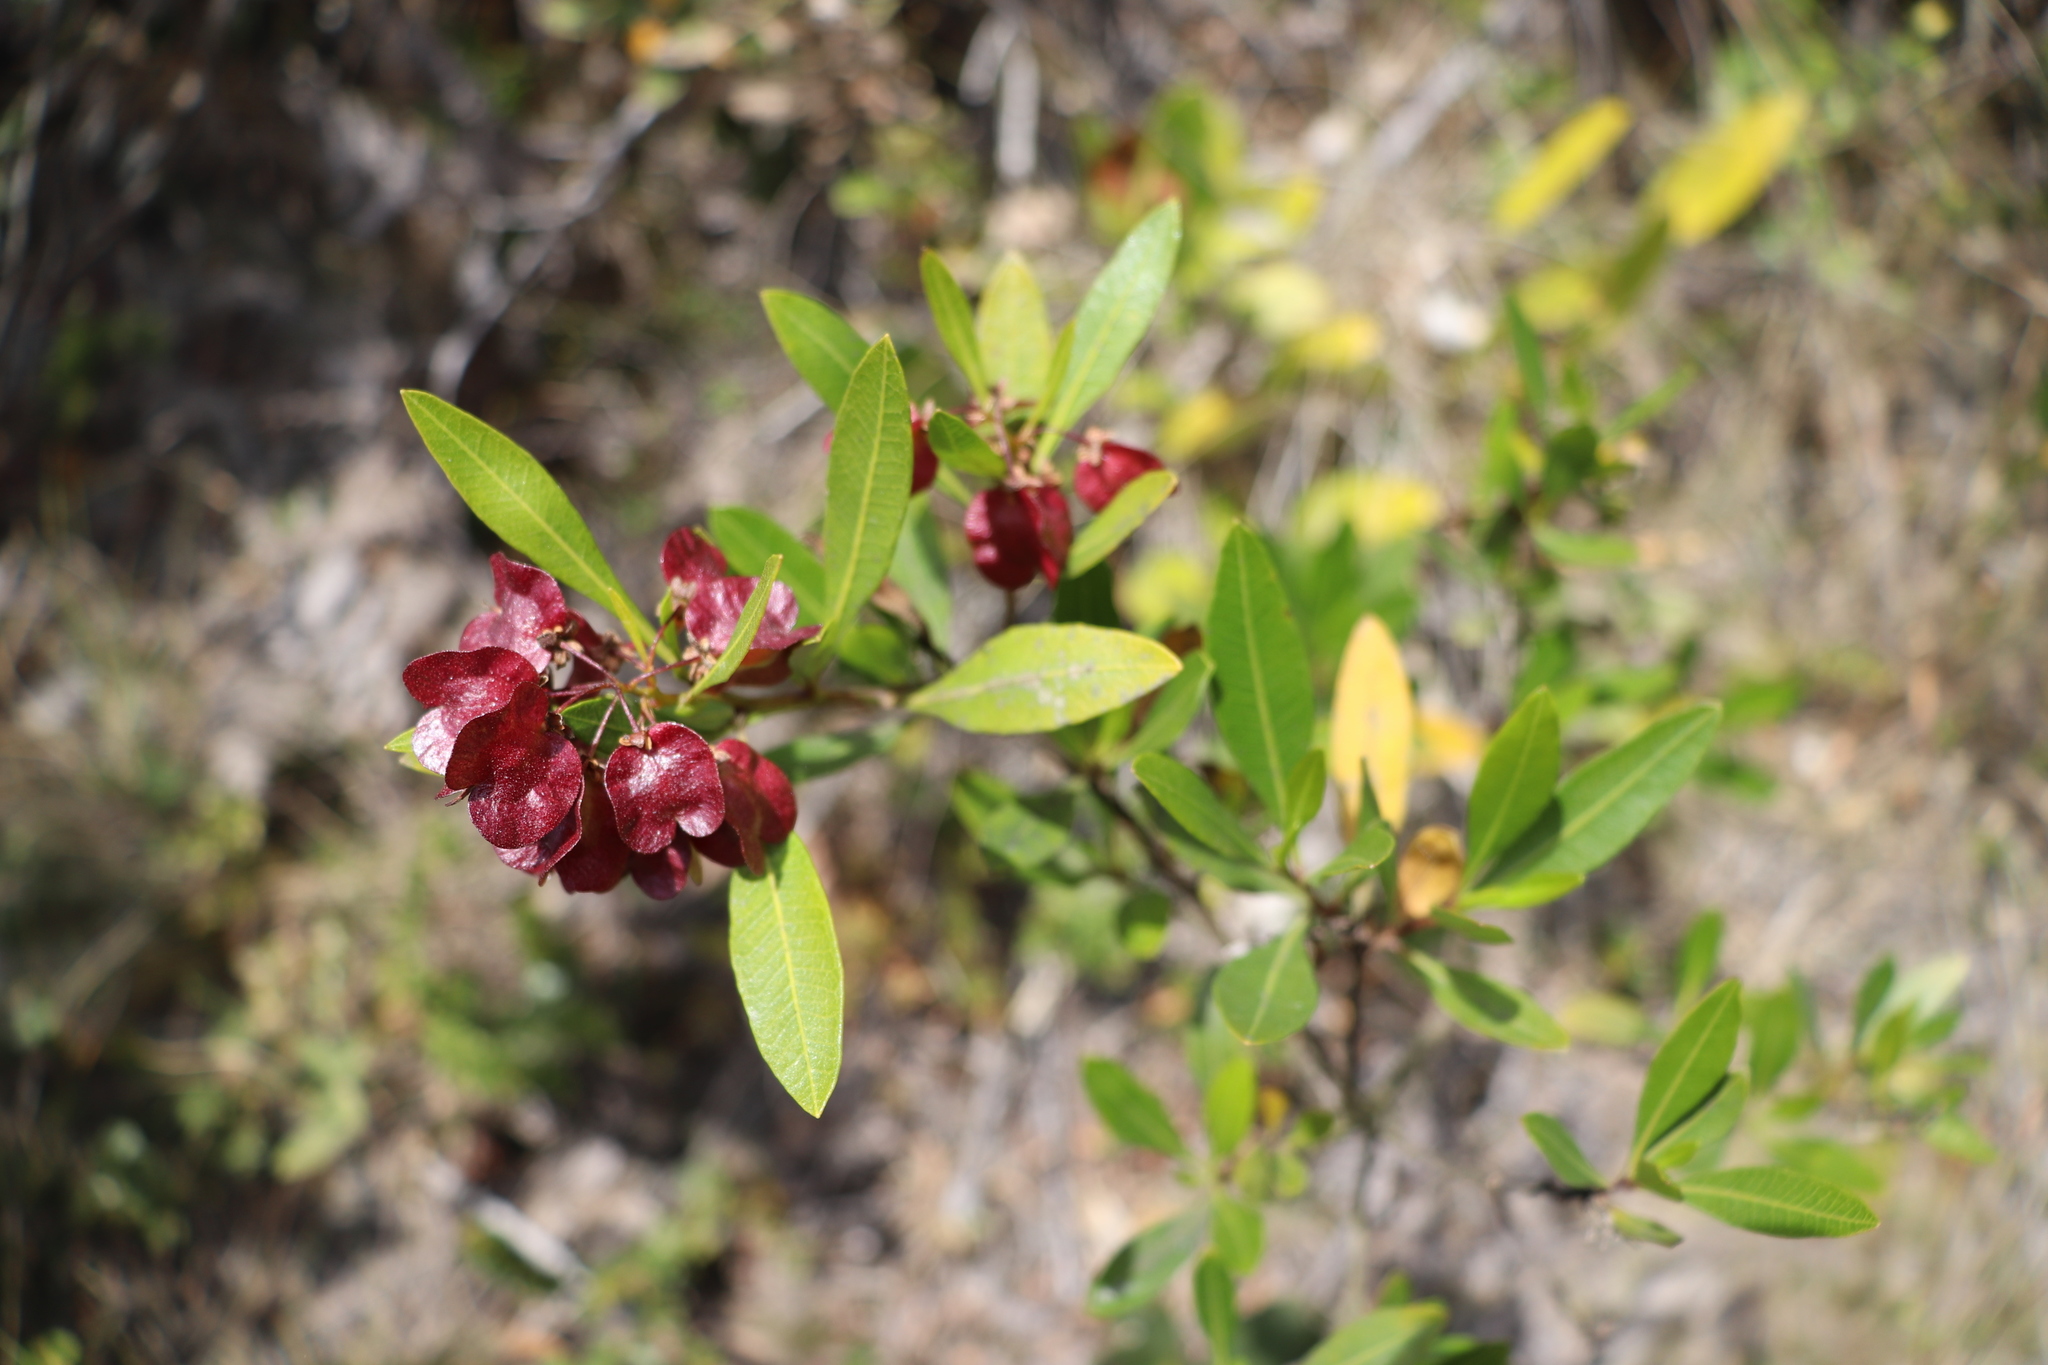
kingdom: Plantae
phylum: Tracheophyta
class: Magnoliopsida
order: Sapindales
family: Sapindaceae
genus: Dodonaea
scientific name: Dodonaea viscosa
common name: Hopbush
